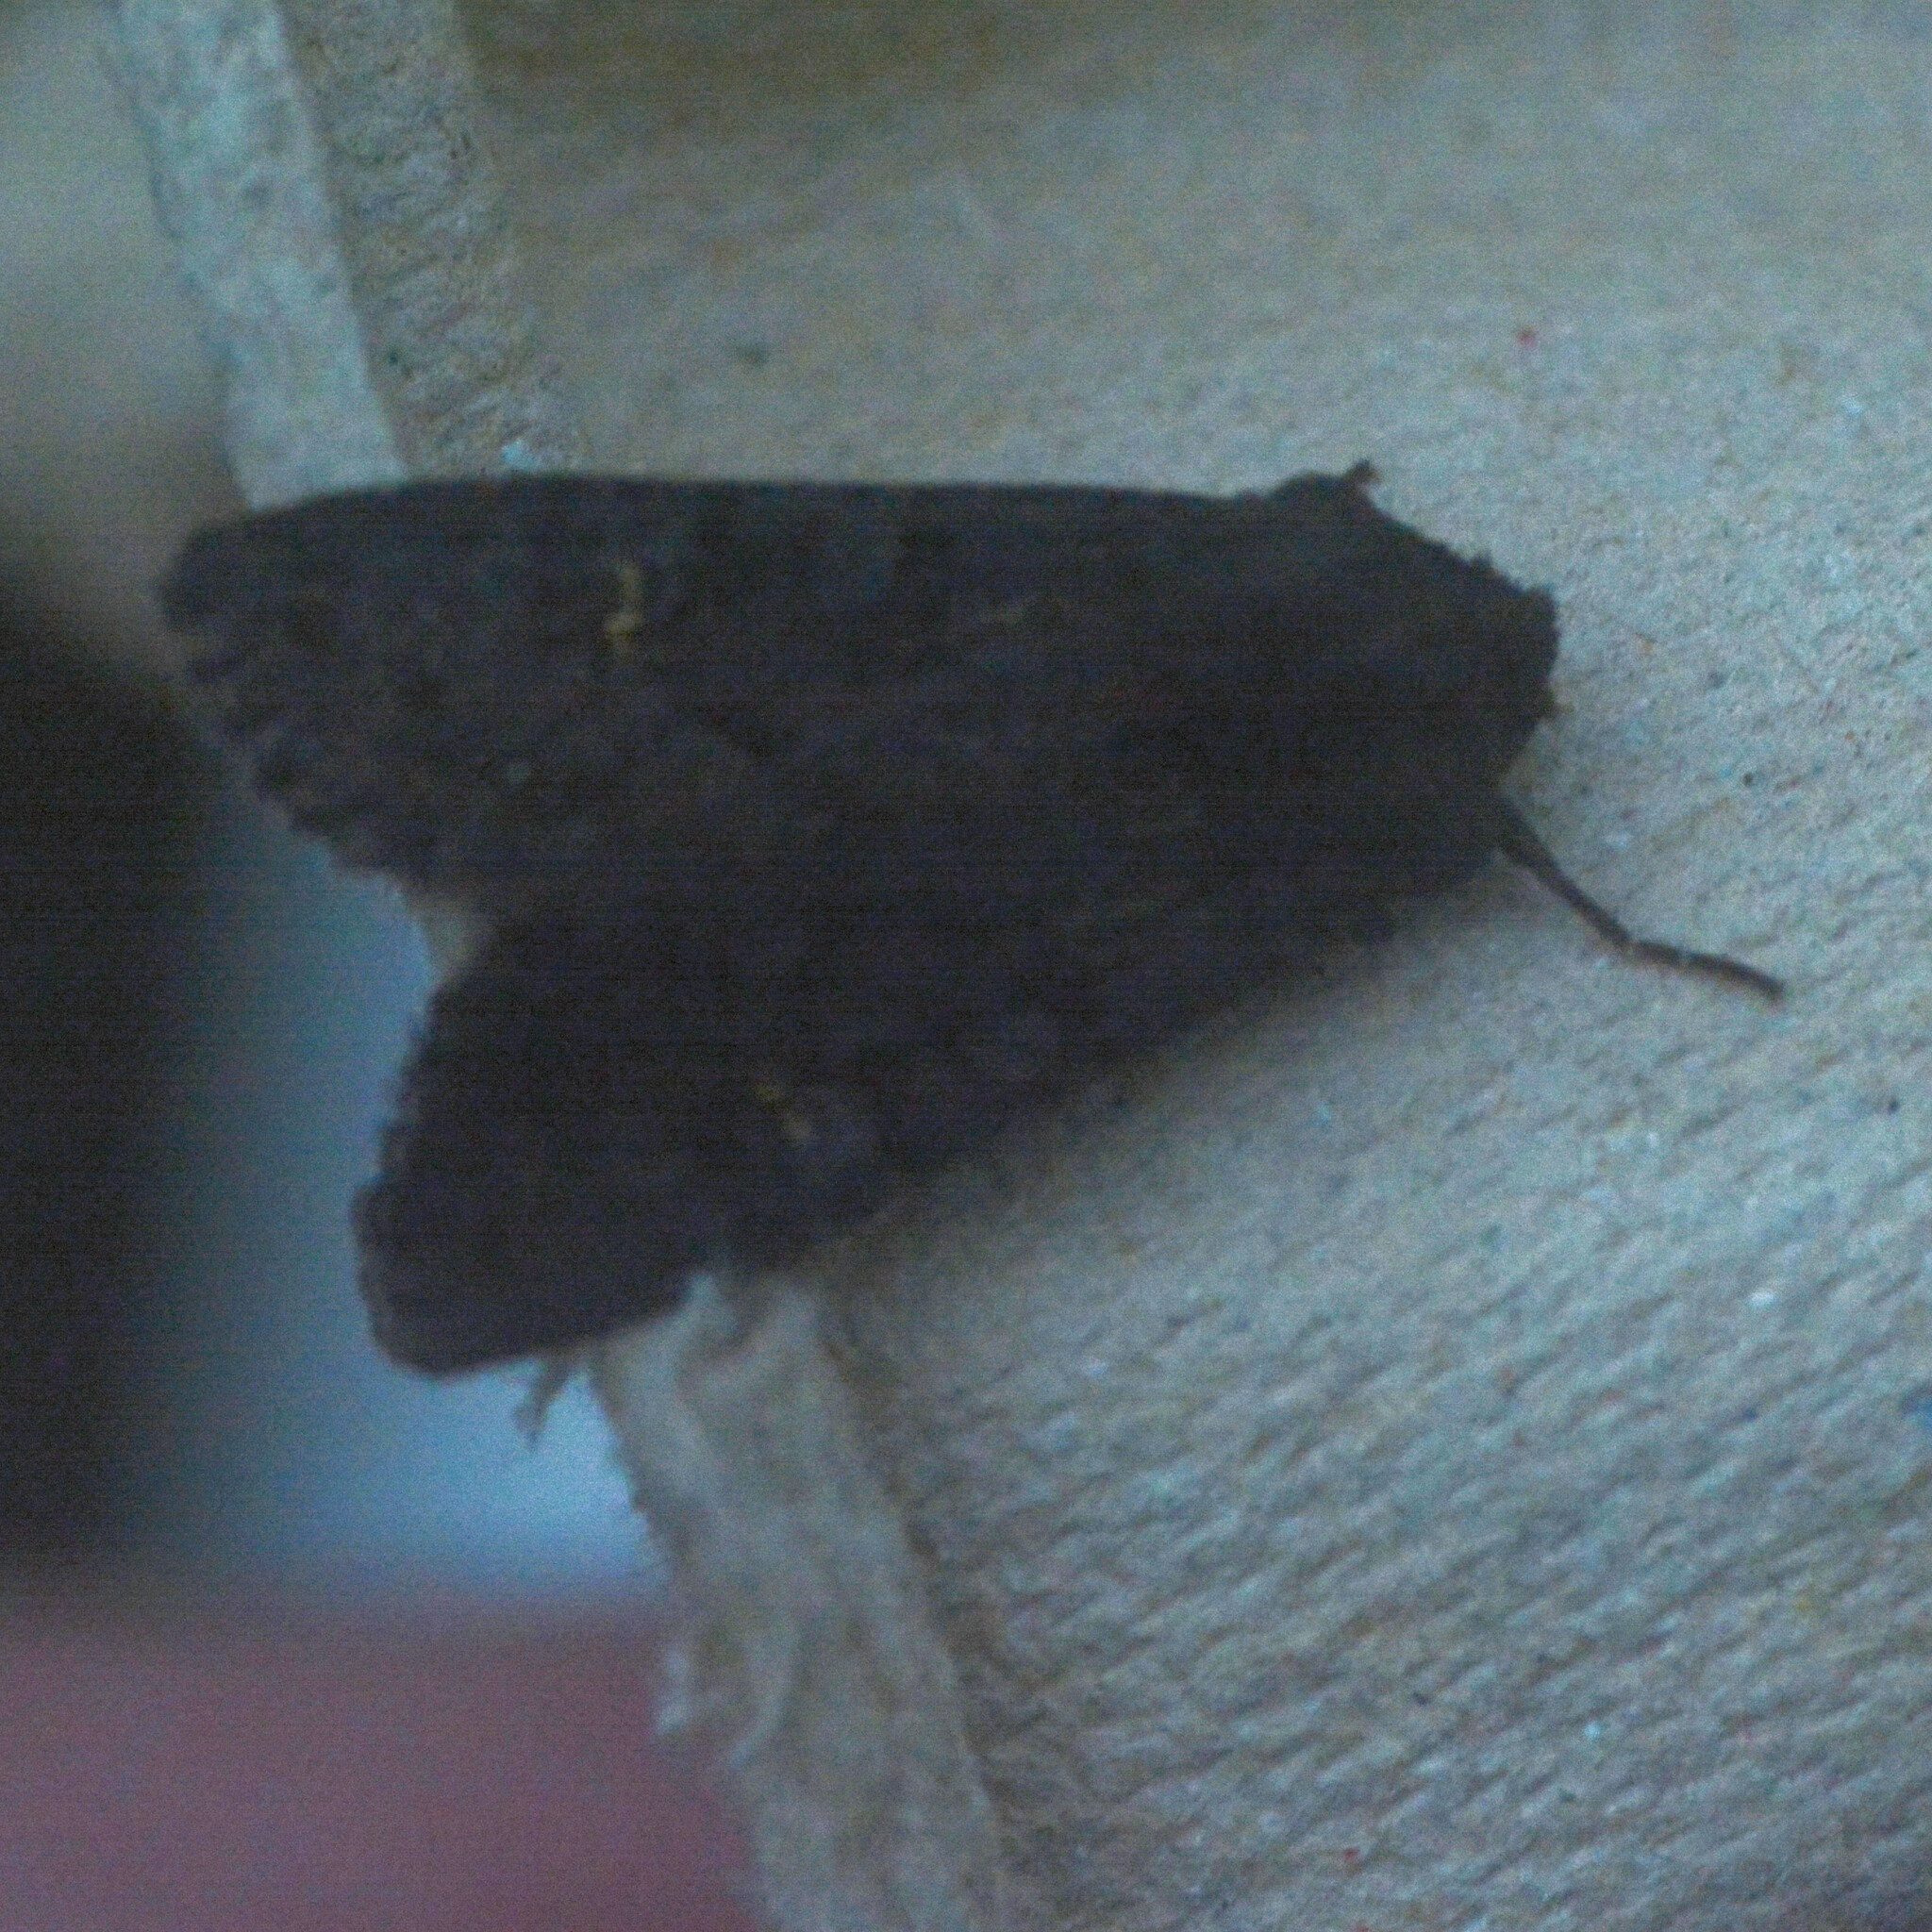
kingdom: Animalia
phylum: Arthropoda
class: Insecta
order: Lepidoptera
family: Noctuidae
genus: Aporophyla
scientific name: Aporophyla nigra
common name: Black rustic
